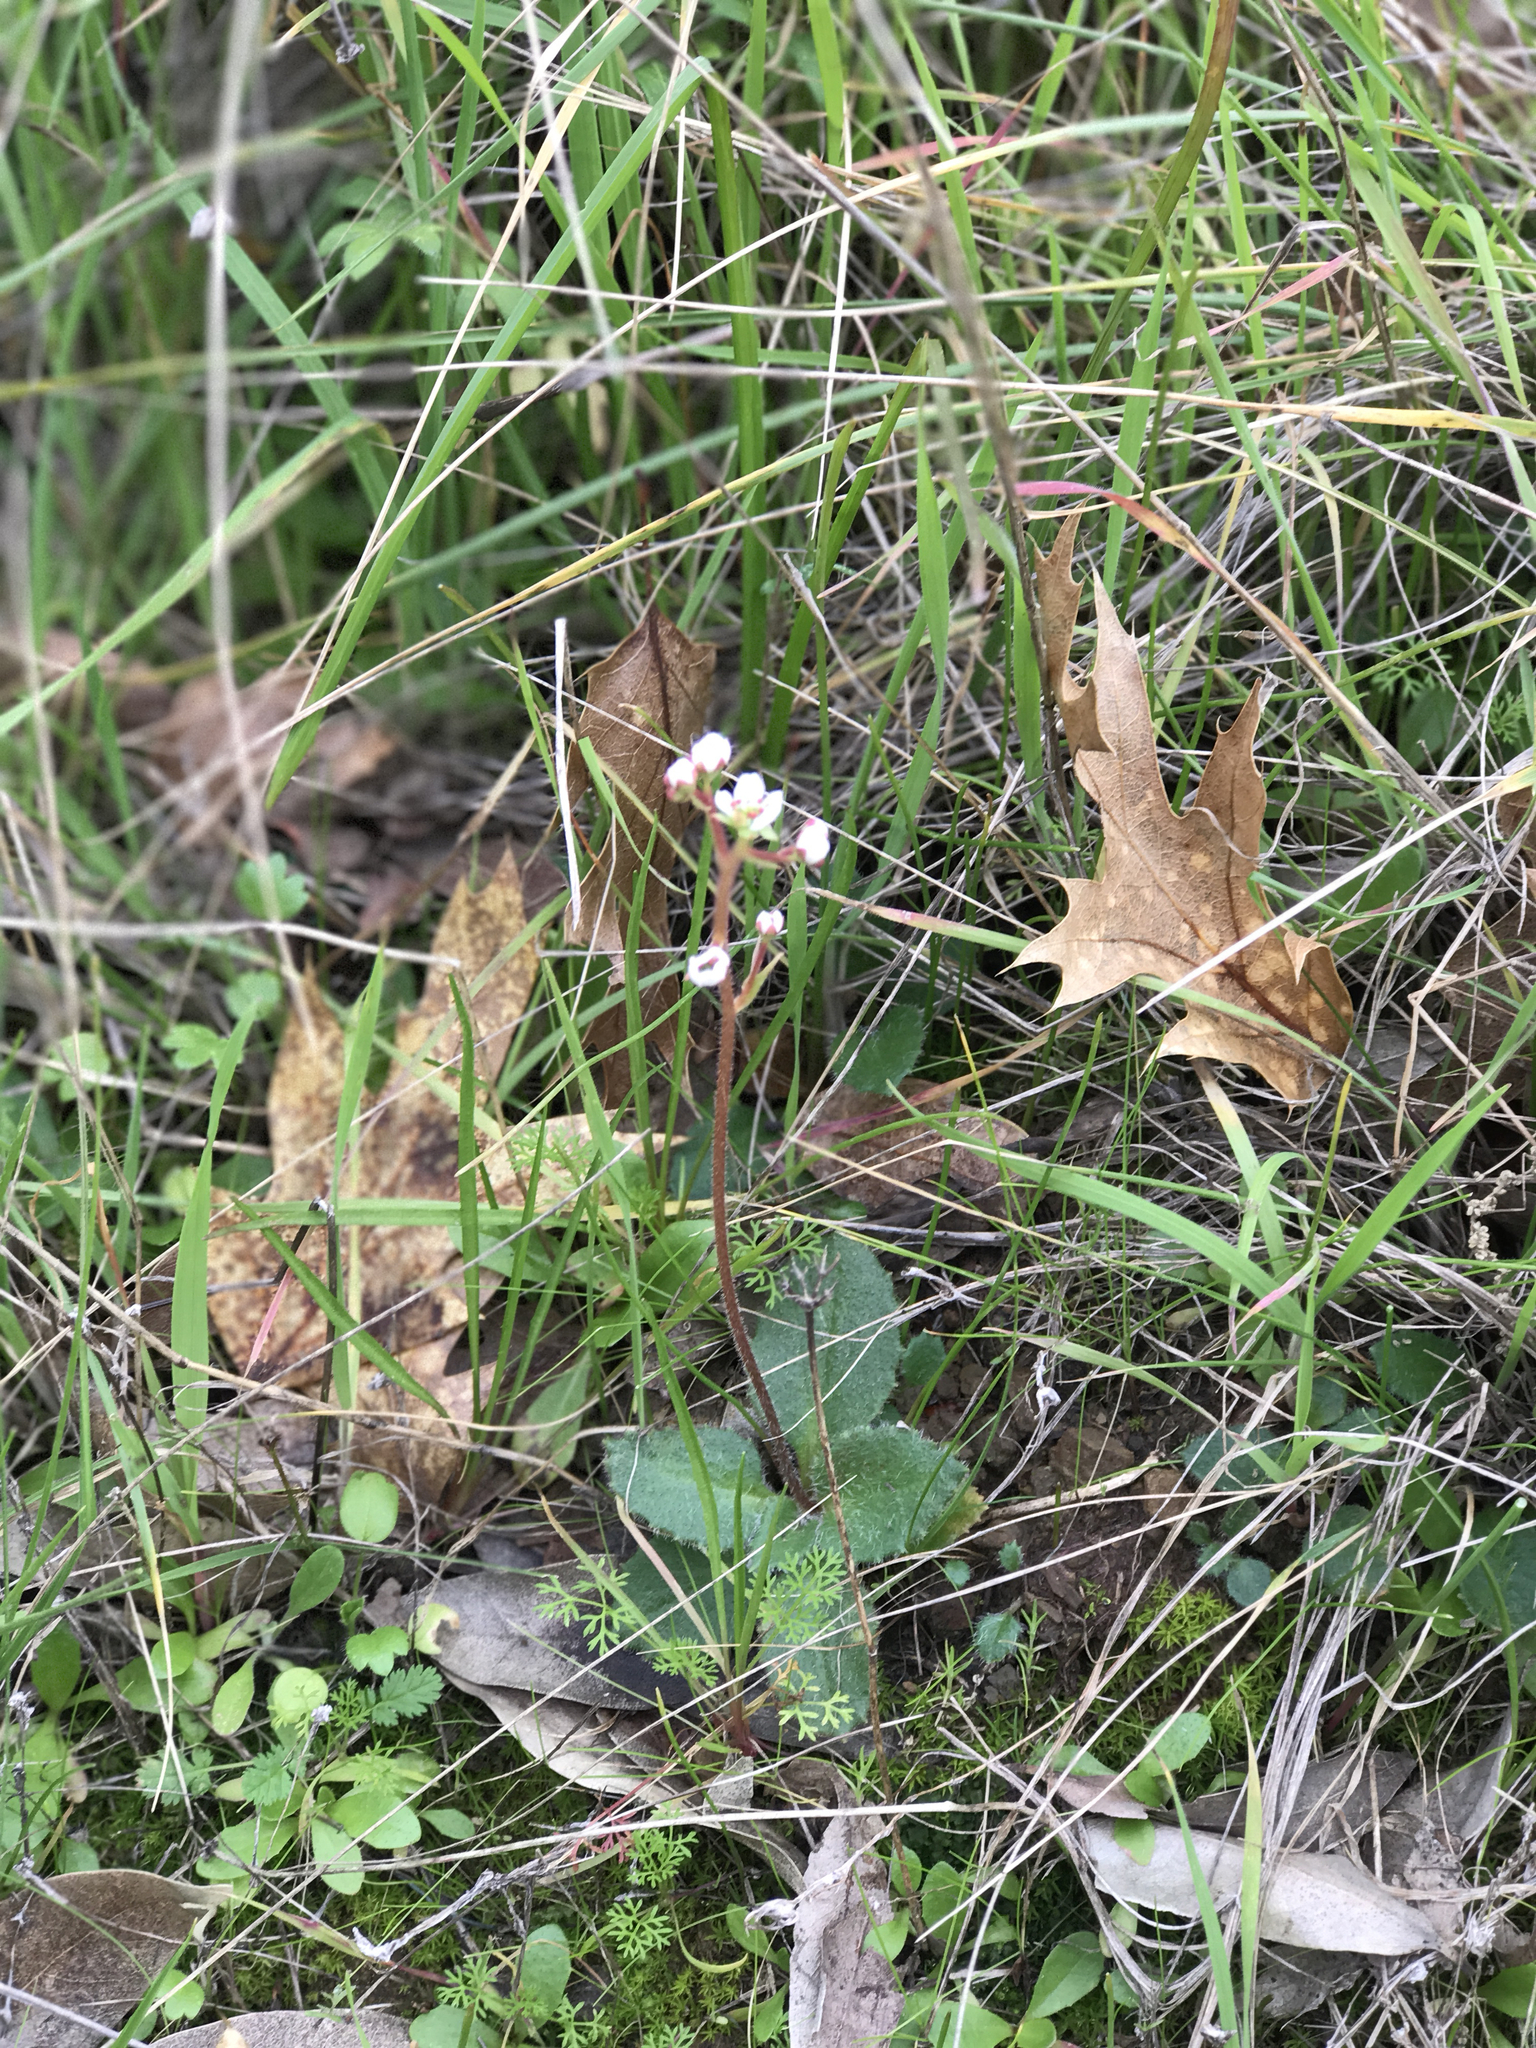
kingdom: Plantae
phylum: Tracheophyta
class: Magnoliopsida
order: Saxifragales
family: Saxifragaceae
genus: Micranthes
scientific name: Micranthes californica
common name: California saxifrage
